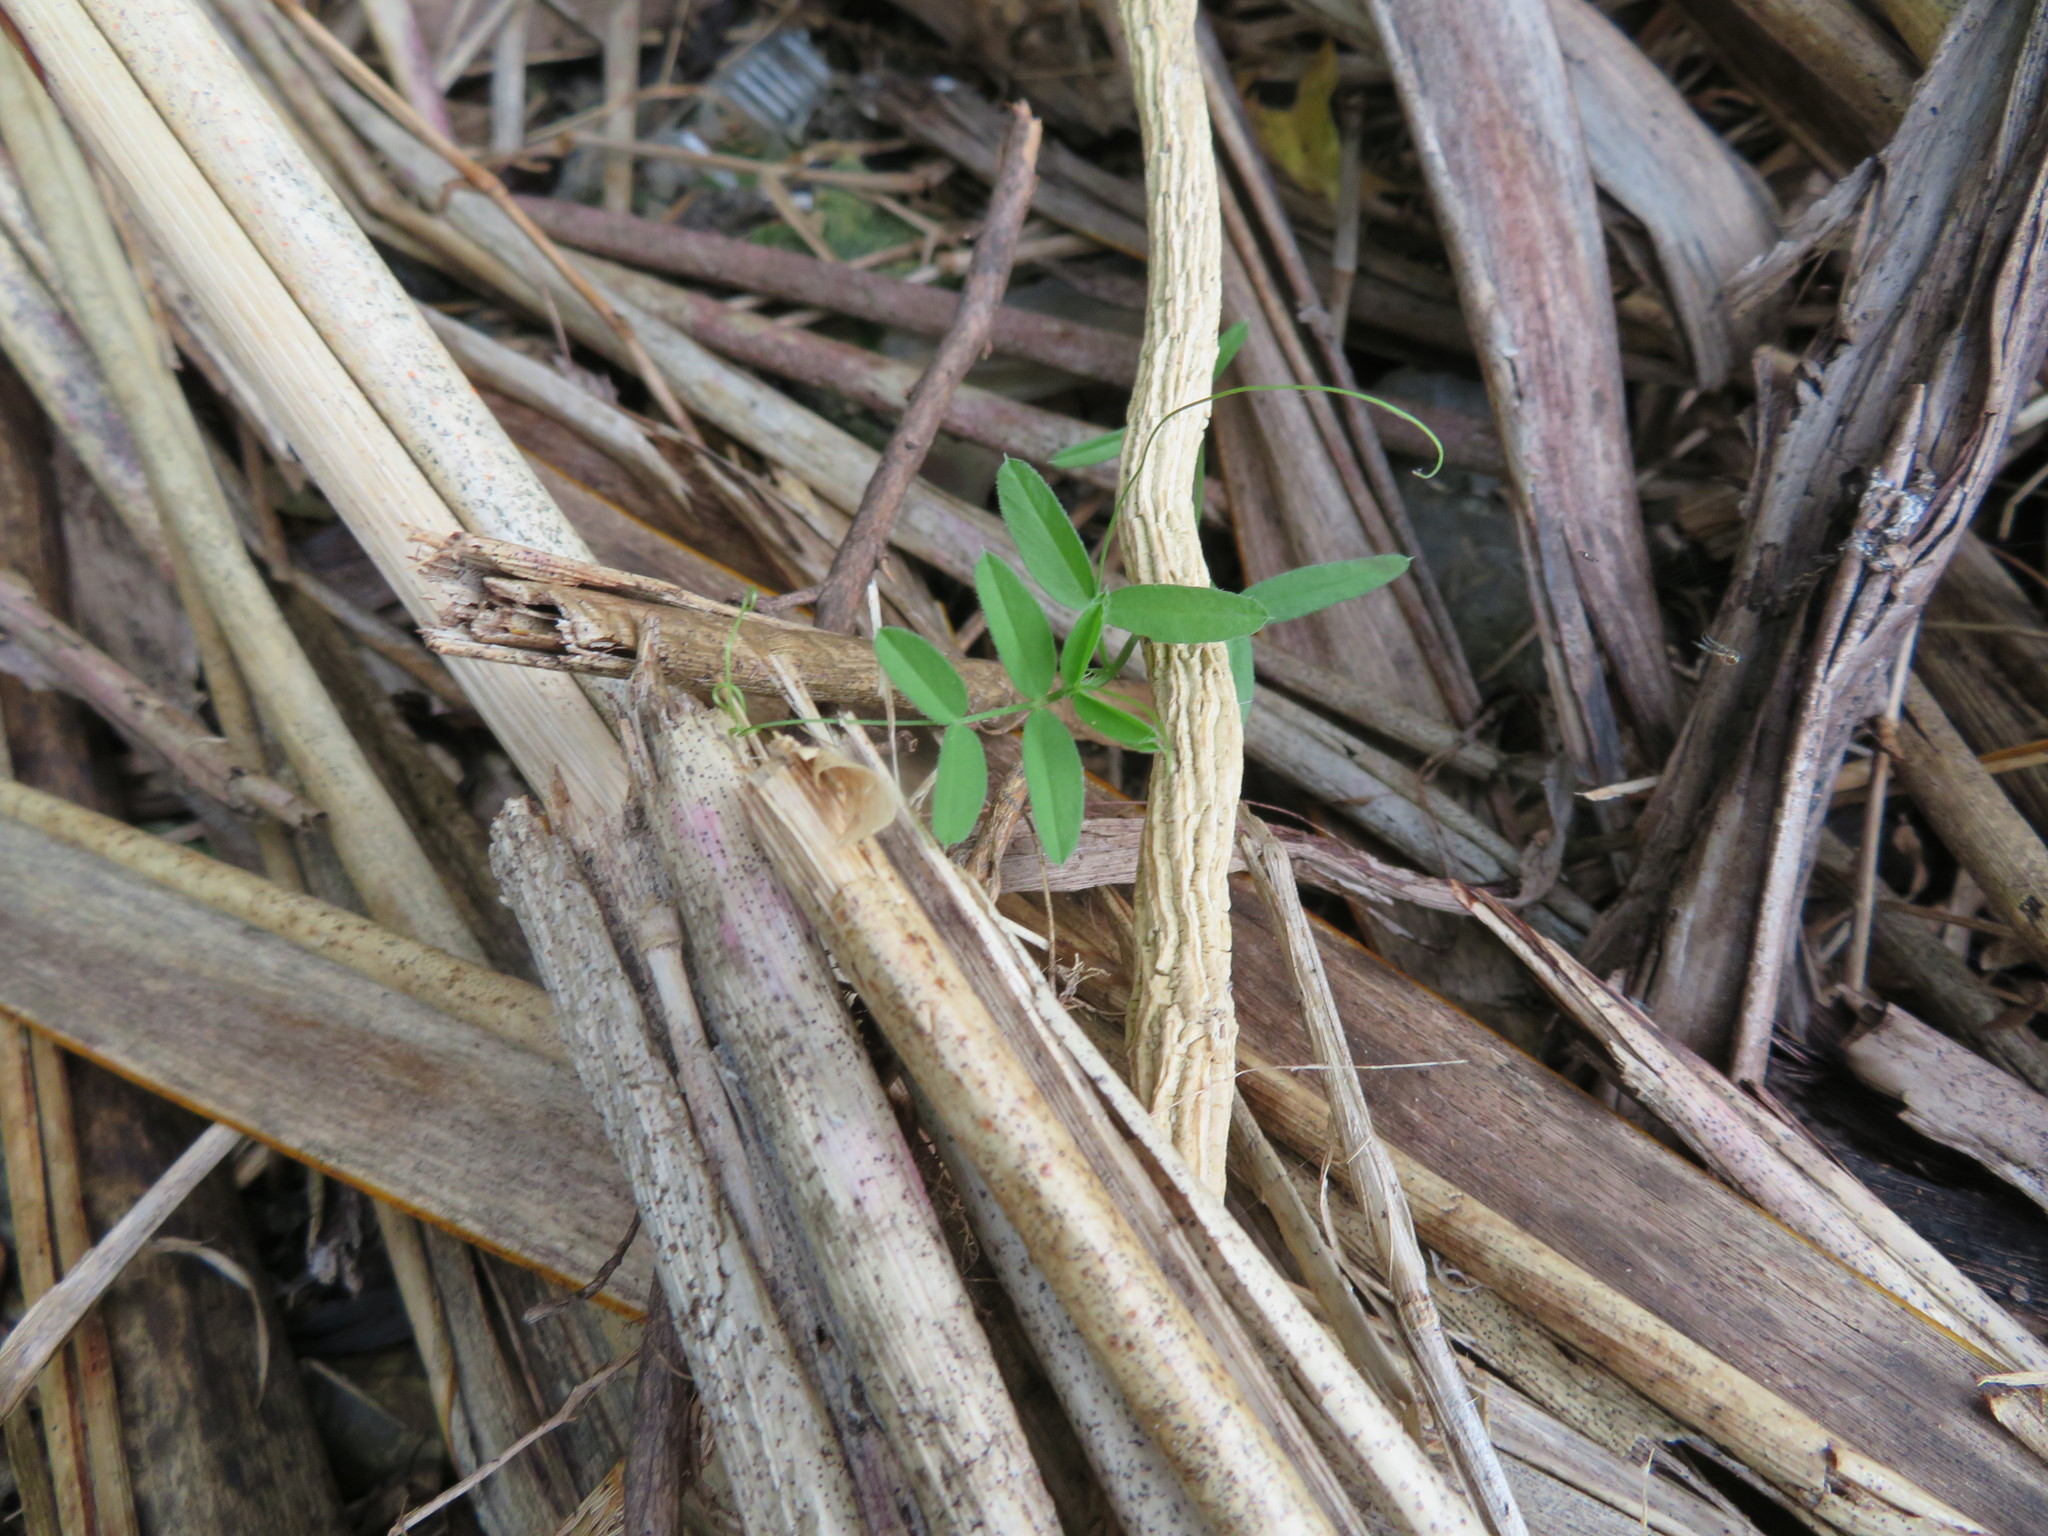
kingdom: Plantae
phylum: Tracheophyta
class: Magnoliopsida
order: Fabales
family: Fabaceae
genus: Vicia
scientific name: Vicia sativa
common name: Garden vetch
